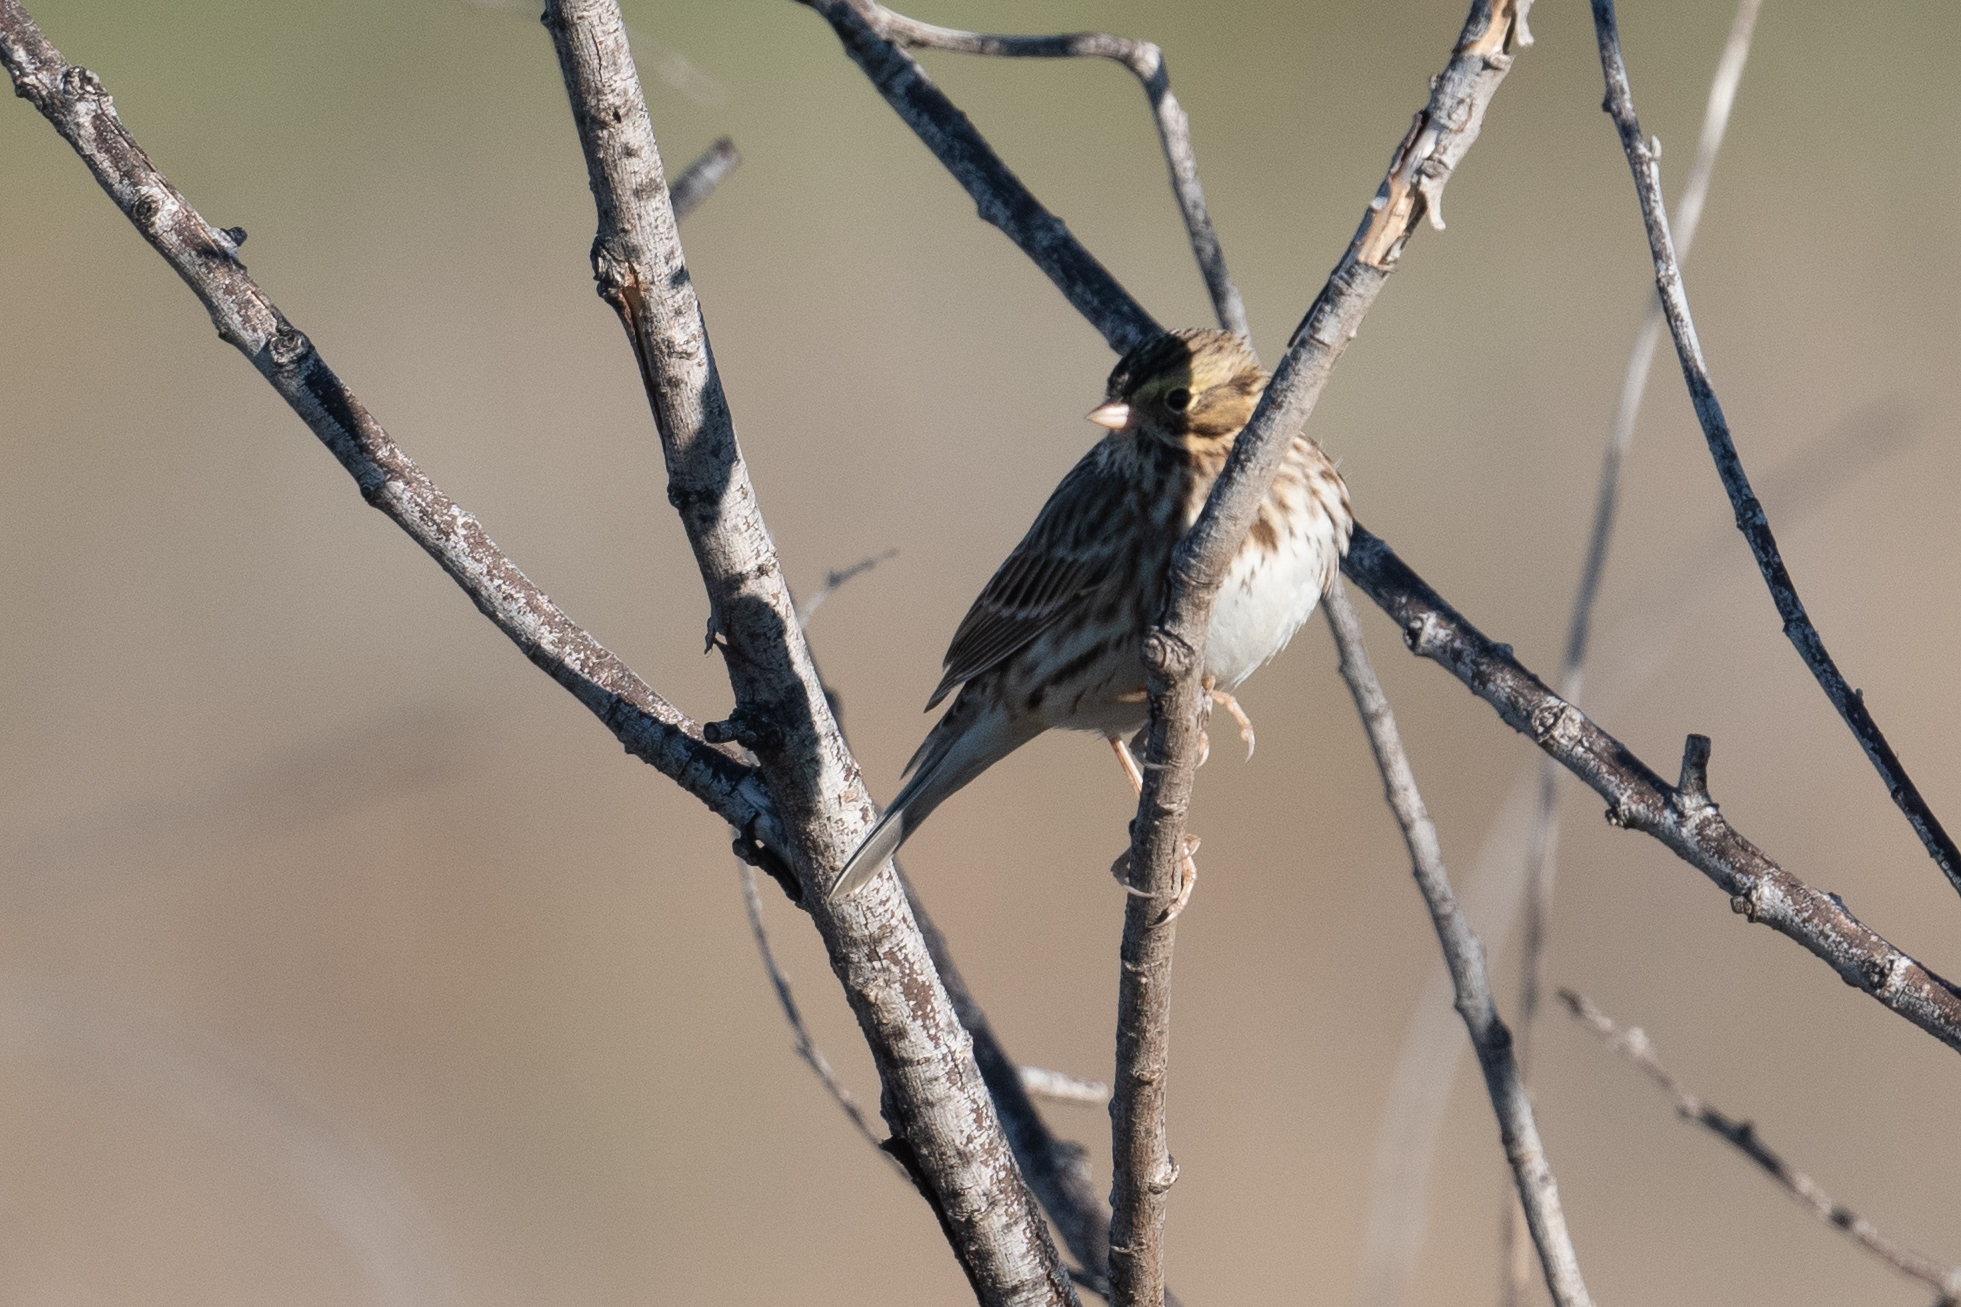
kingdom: Animalia
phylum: Chordata
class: Aves
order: Passeriformes
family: Passerellidae
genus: Passerculus
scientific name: Passerculus sandwichensis
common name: Savannah sparrow
